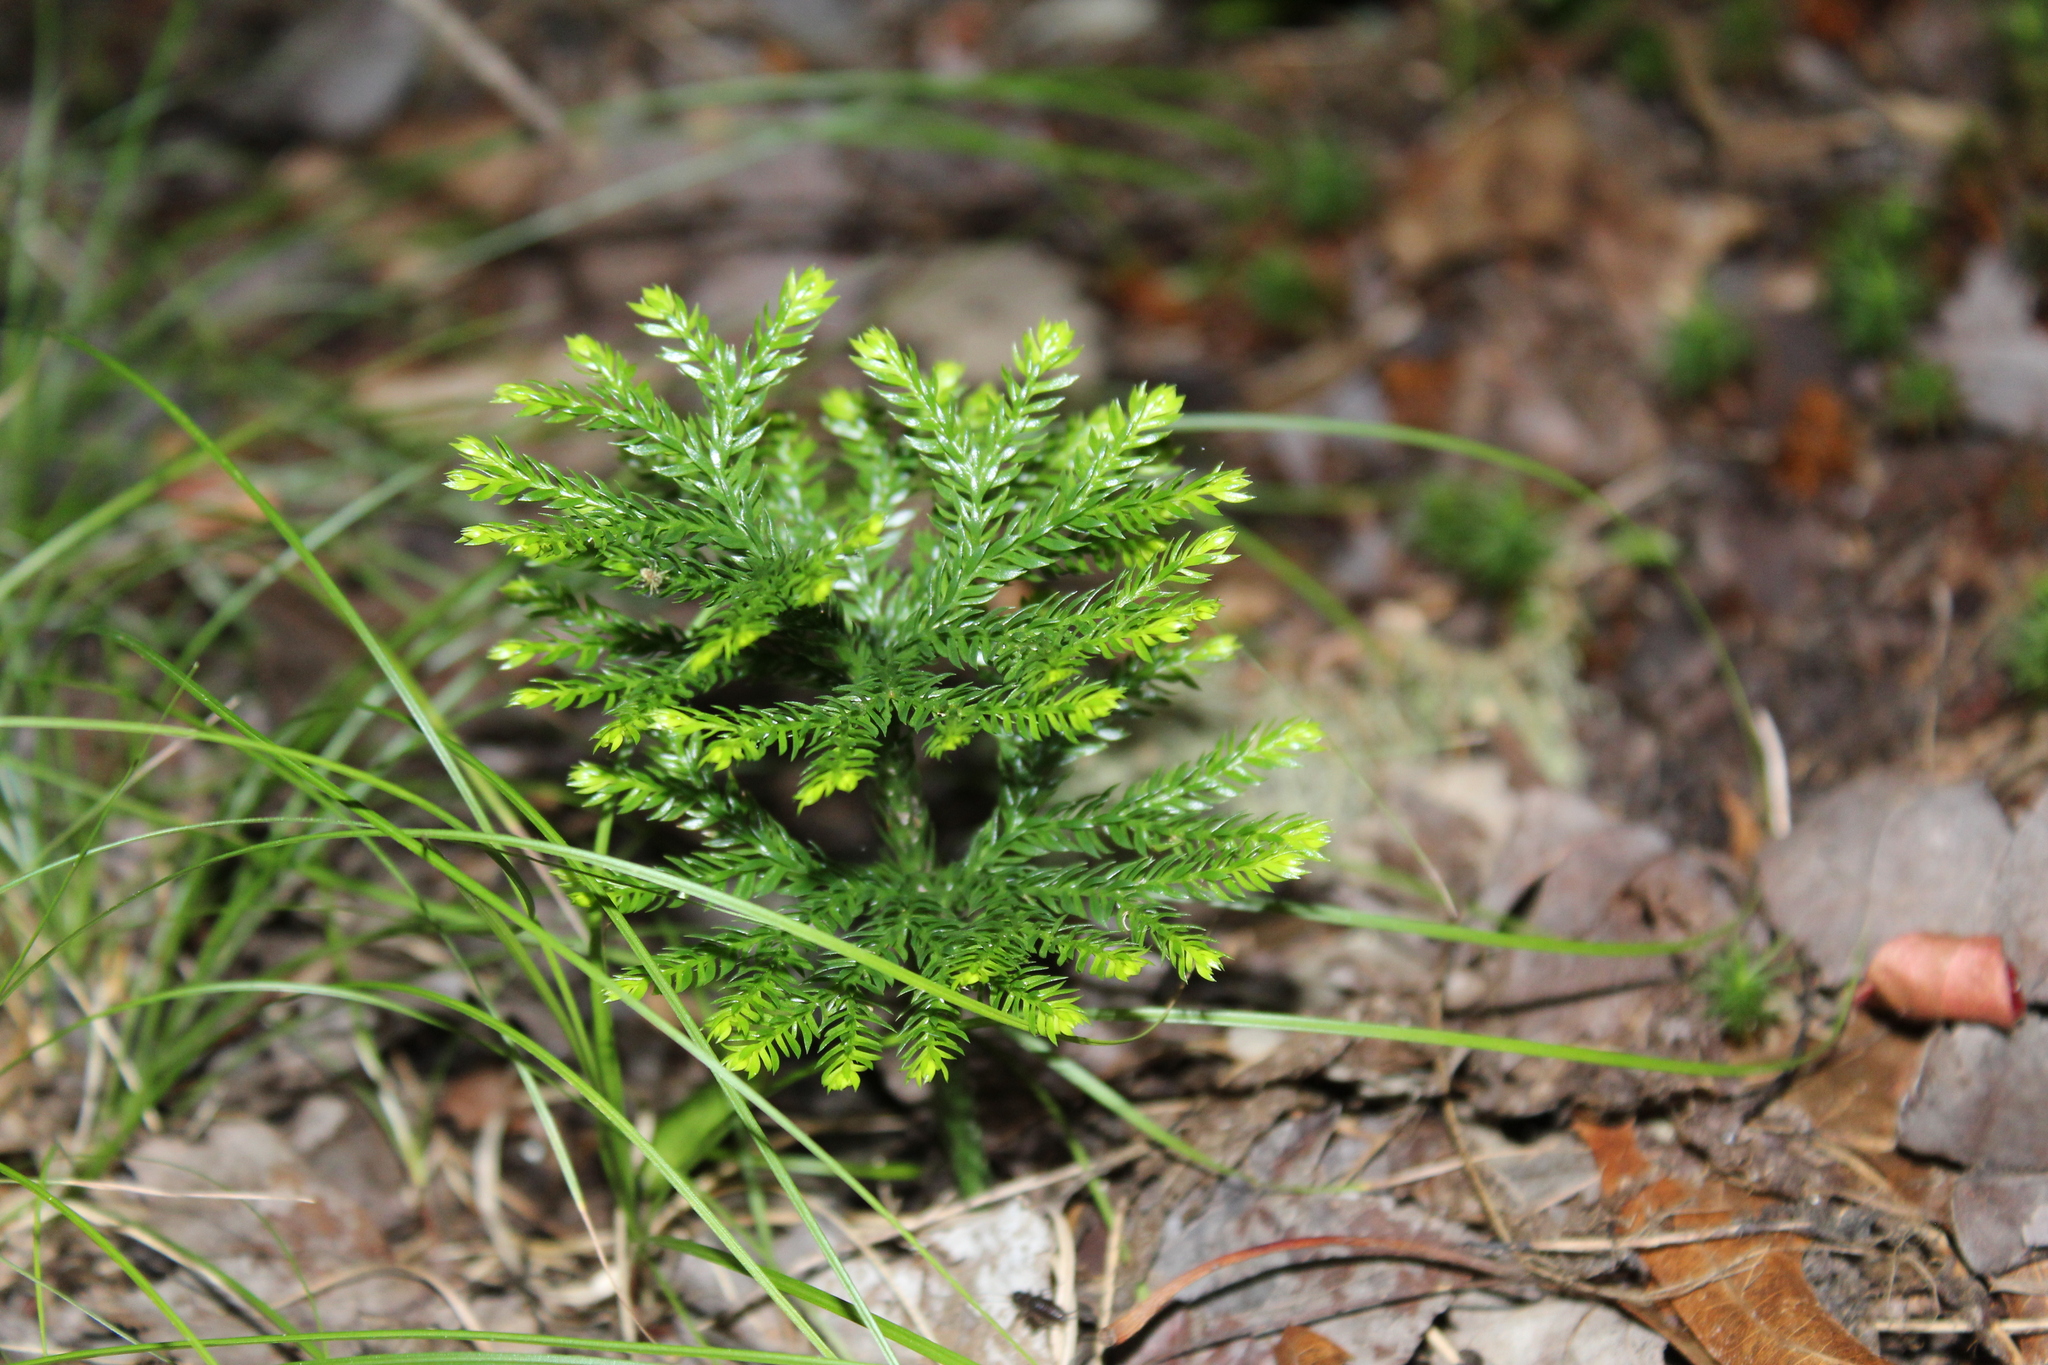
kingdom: Plantae
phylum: Tracheophyta
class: Lycopodiopsida
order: Lycopodiales
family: Lycopodiaceae
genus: Dendrolycopodium
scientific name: Dendrolycopodium obscurum
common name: Common ground-pine
